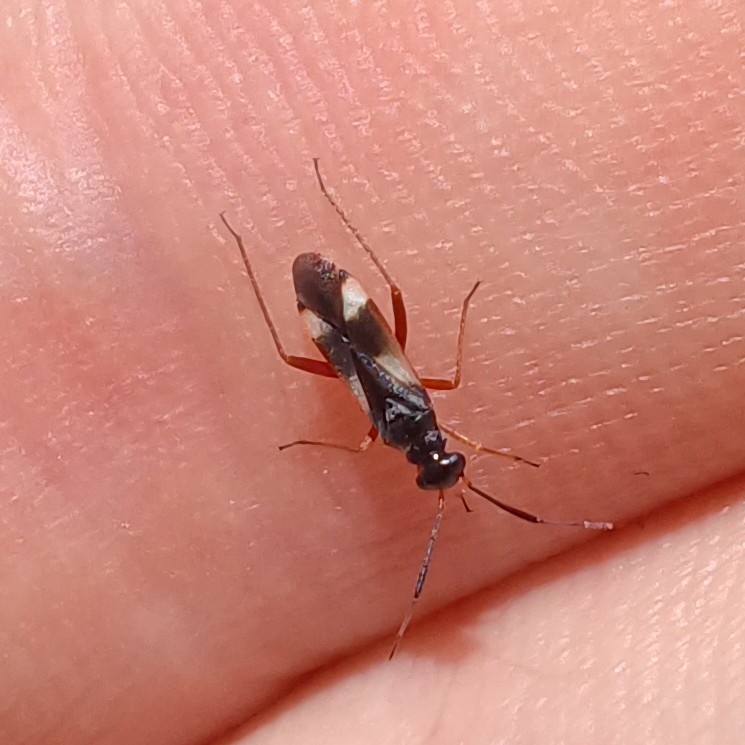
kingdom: Animalia
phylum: Arthropoda
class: Insecta
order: Hemiptera
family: Miridae
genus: Dryophilocoris
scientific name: Dryophilocoris flavoquadrimaculatus
